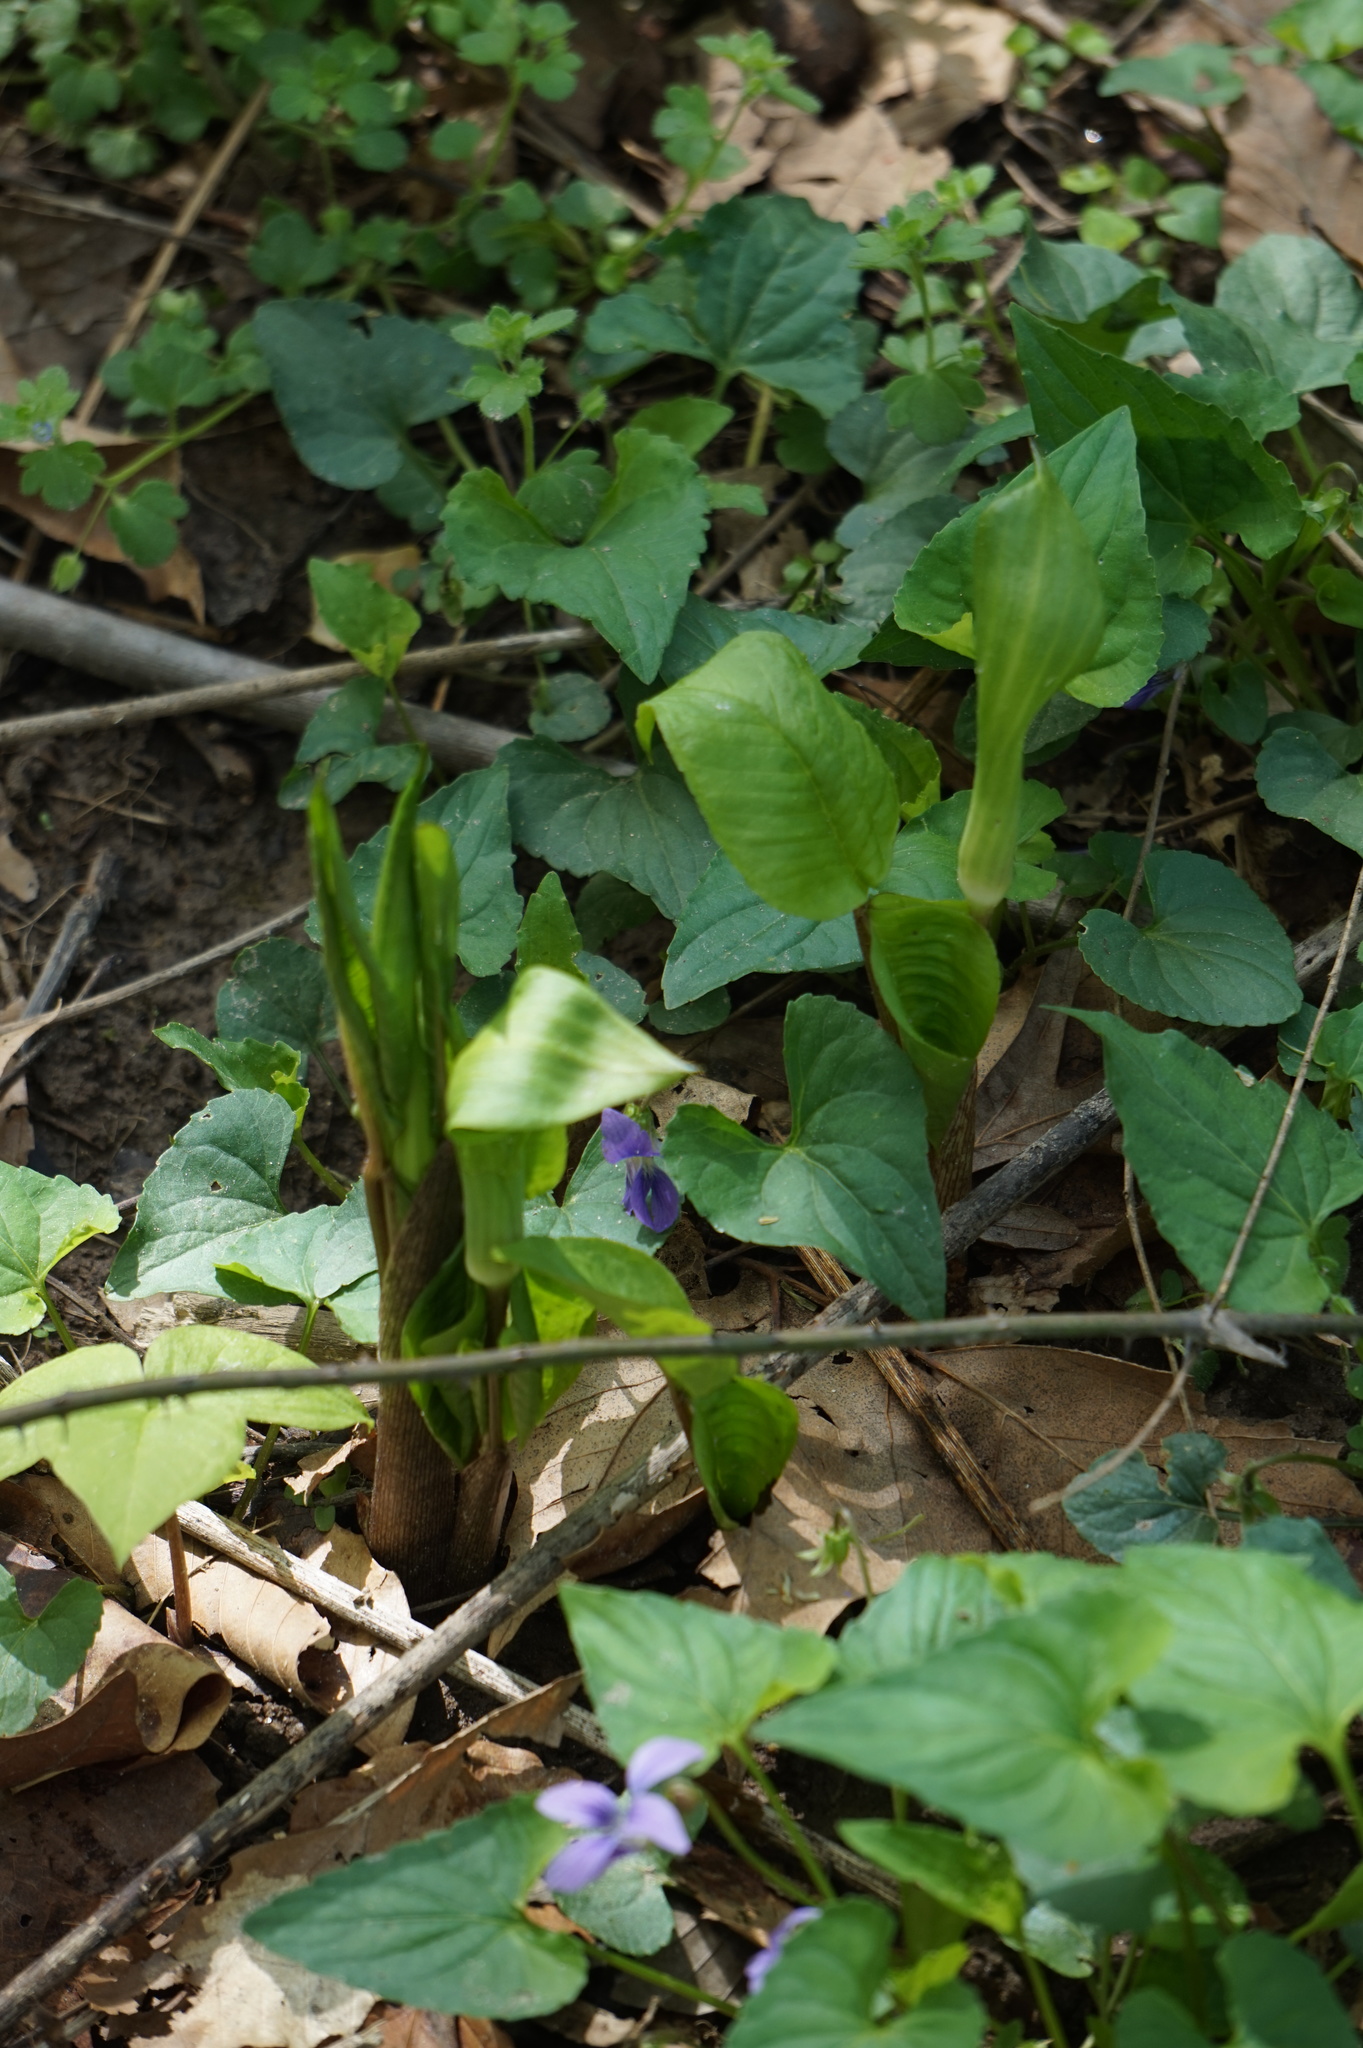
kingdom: Plantae
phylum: Tracheophyta
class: Liliopsida
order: Alismatales
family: Araceae
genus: Arisaema
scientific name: Arisaema triphyllum
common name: Jack-in-the-pulpit
